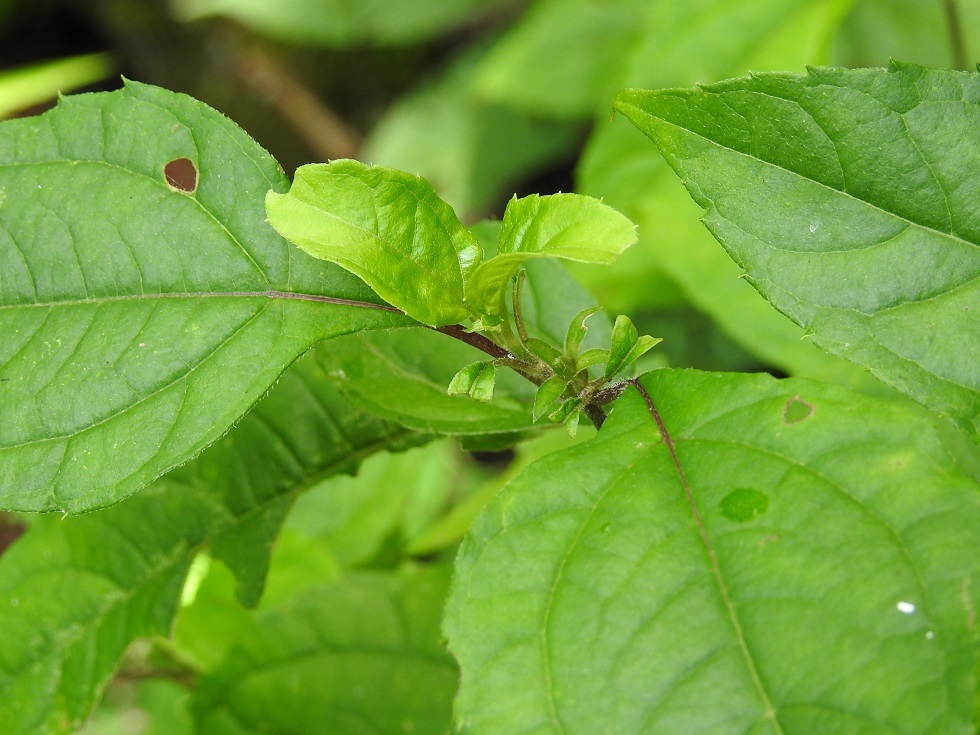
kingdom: Plantae
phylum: Tracheophyta
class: Magnoliopsida
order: Asterales
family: Asteraceae
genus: Philactis
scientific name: Philactis zinnioides
